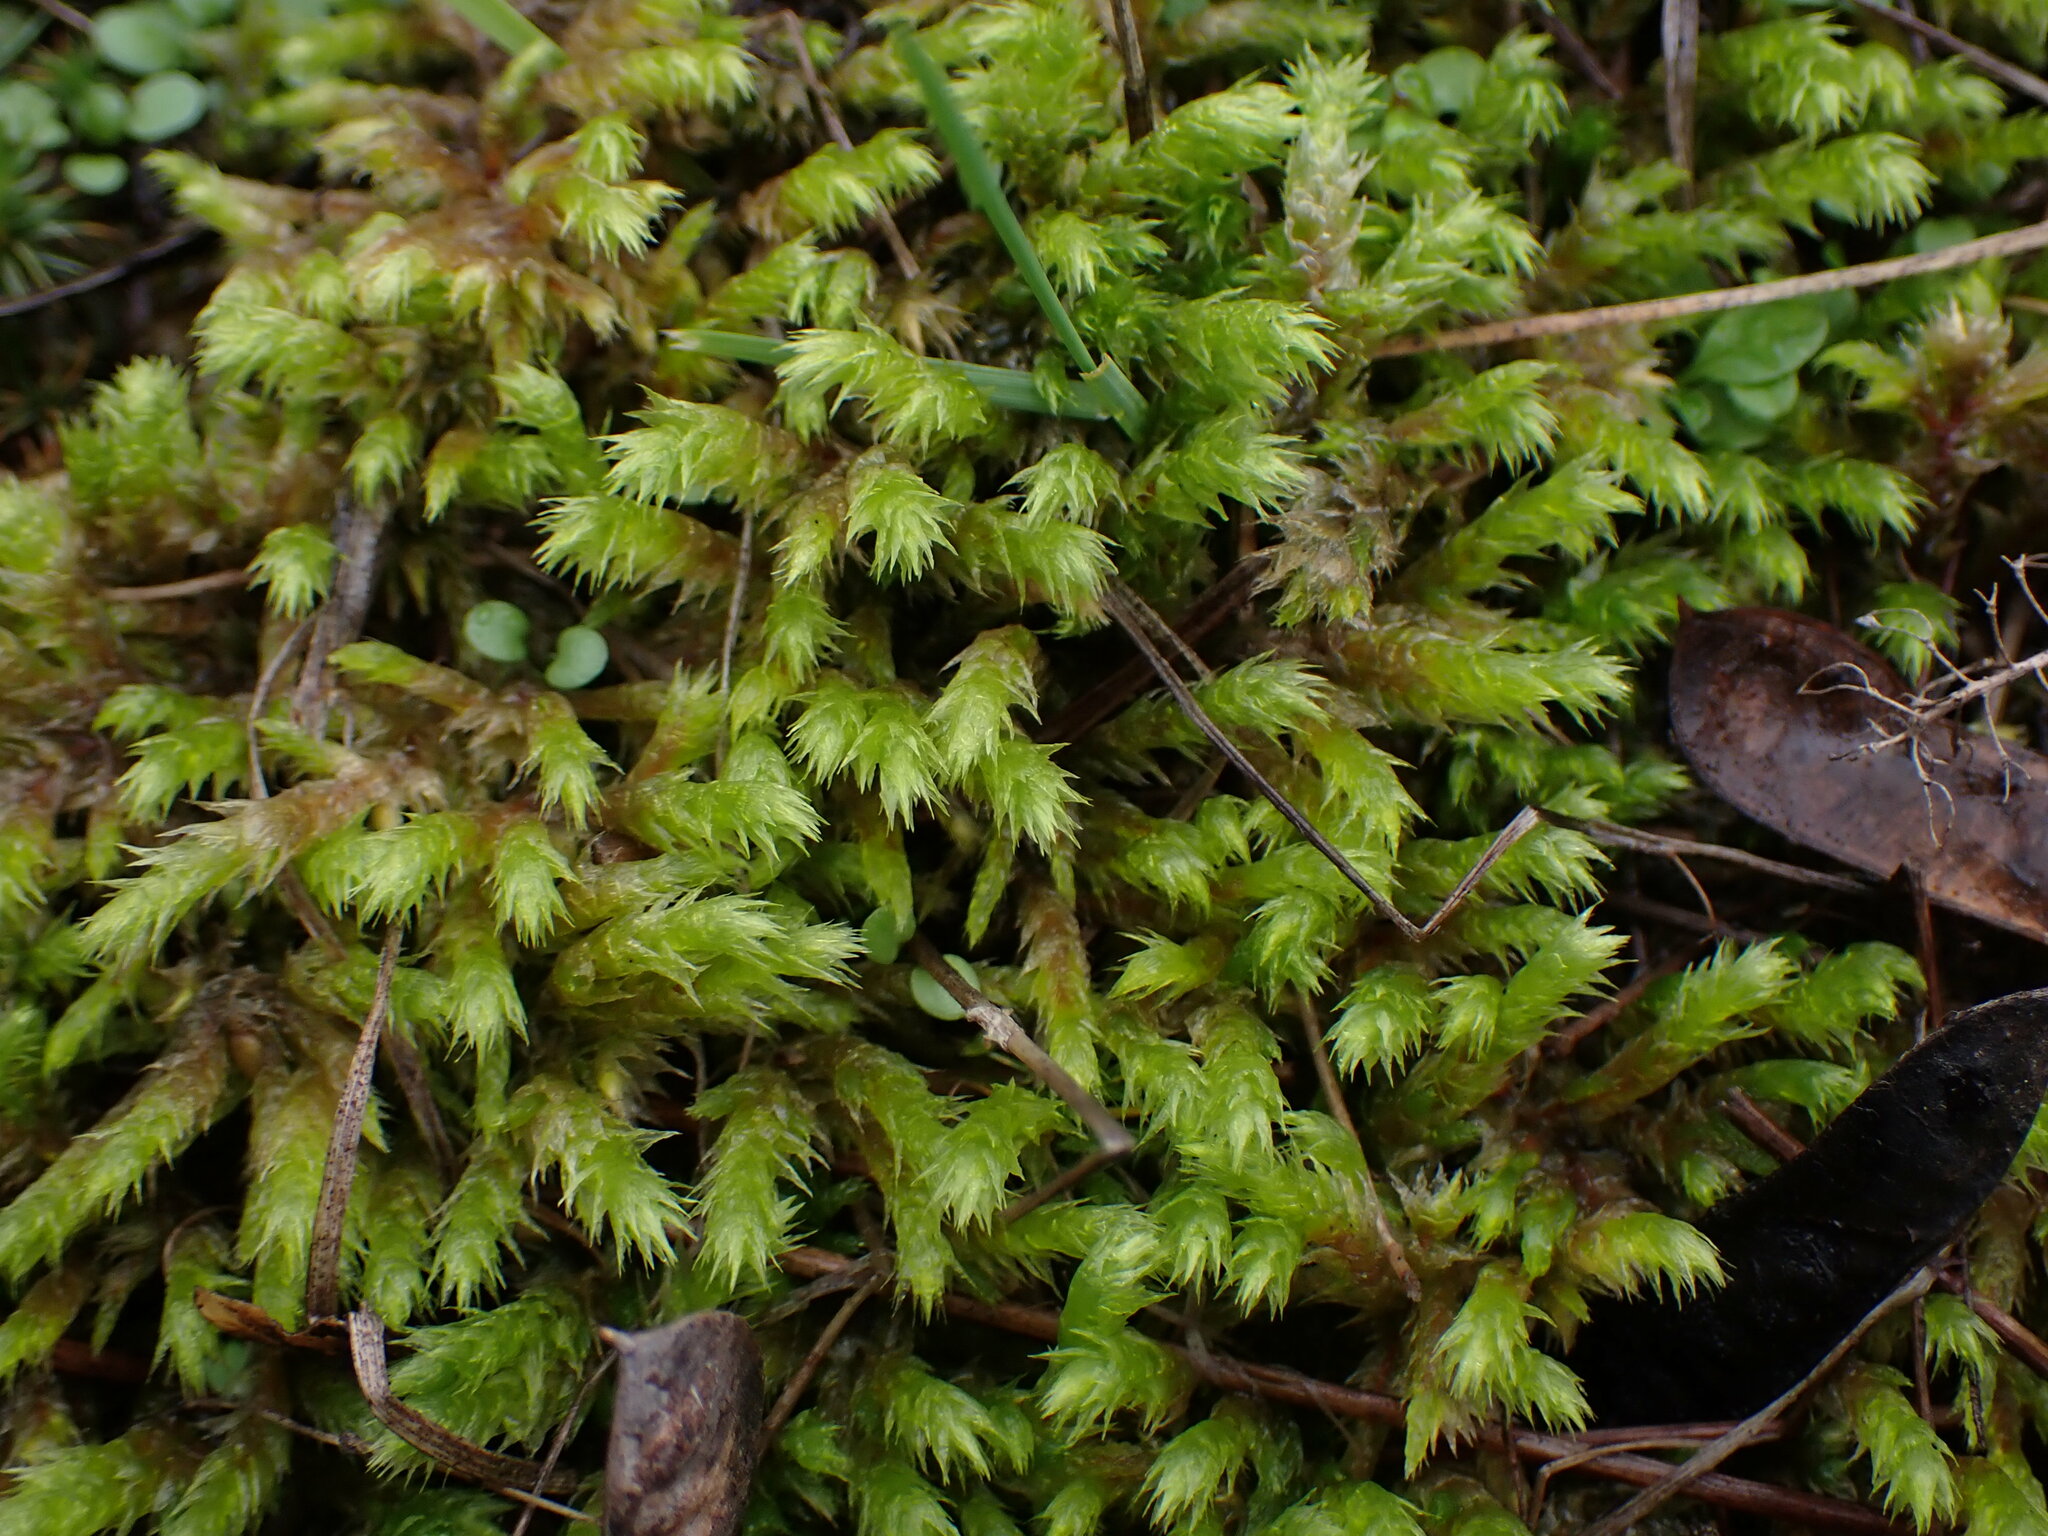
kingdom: Plantae
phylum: Bryophyta
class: Bryopsida
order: Hypnales
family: Hylocomiaceae
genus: Hylocomiadelphus
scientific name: Hylocomiadelphus triquetrus
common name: Rough goose neck moss
